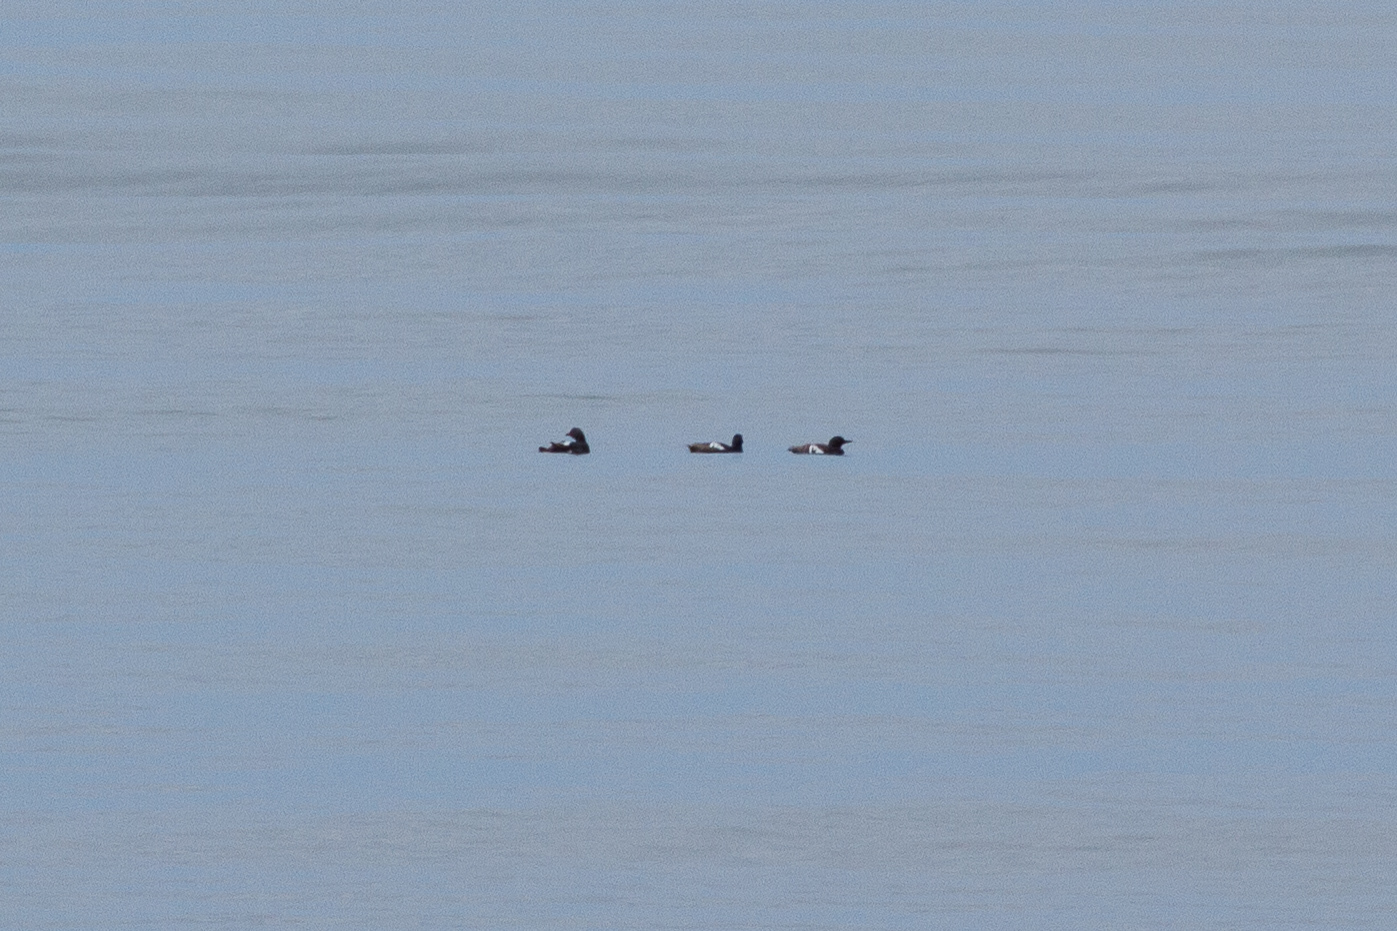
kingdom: Animalia
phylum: Chordata
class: Aves
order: Charadriiformes
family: Alcidae
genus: Cepphus
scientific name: Cepphus columba
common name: Pigeon guillemot
